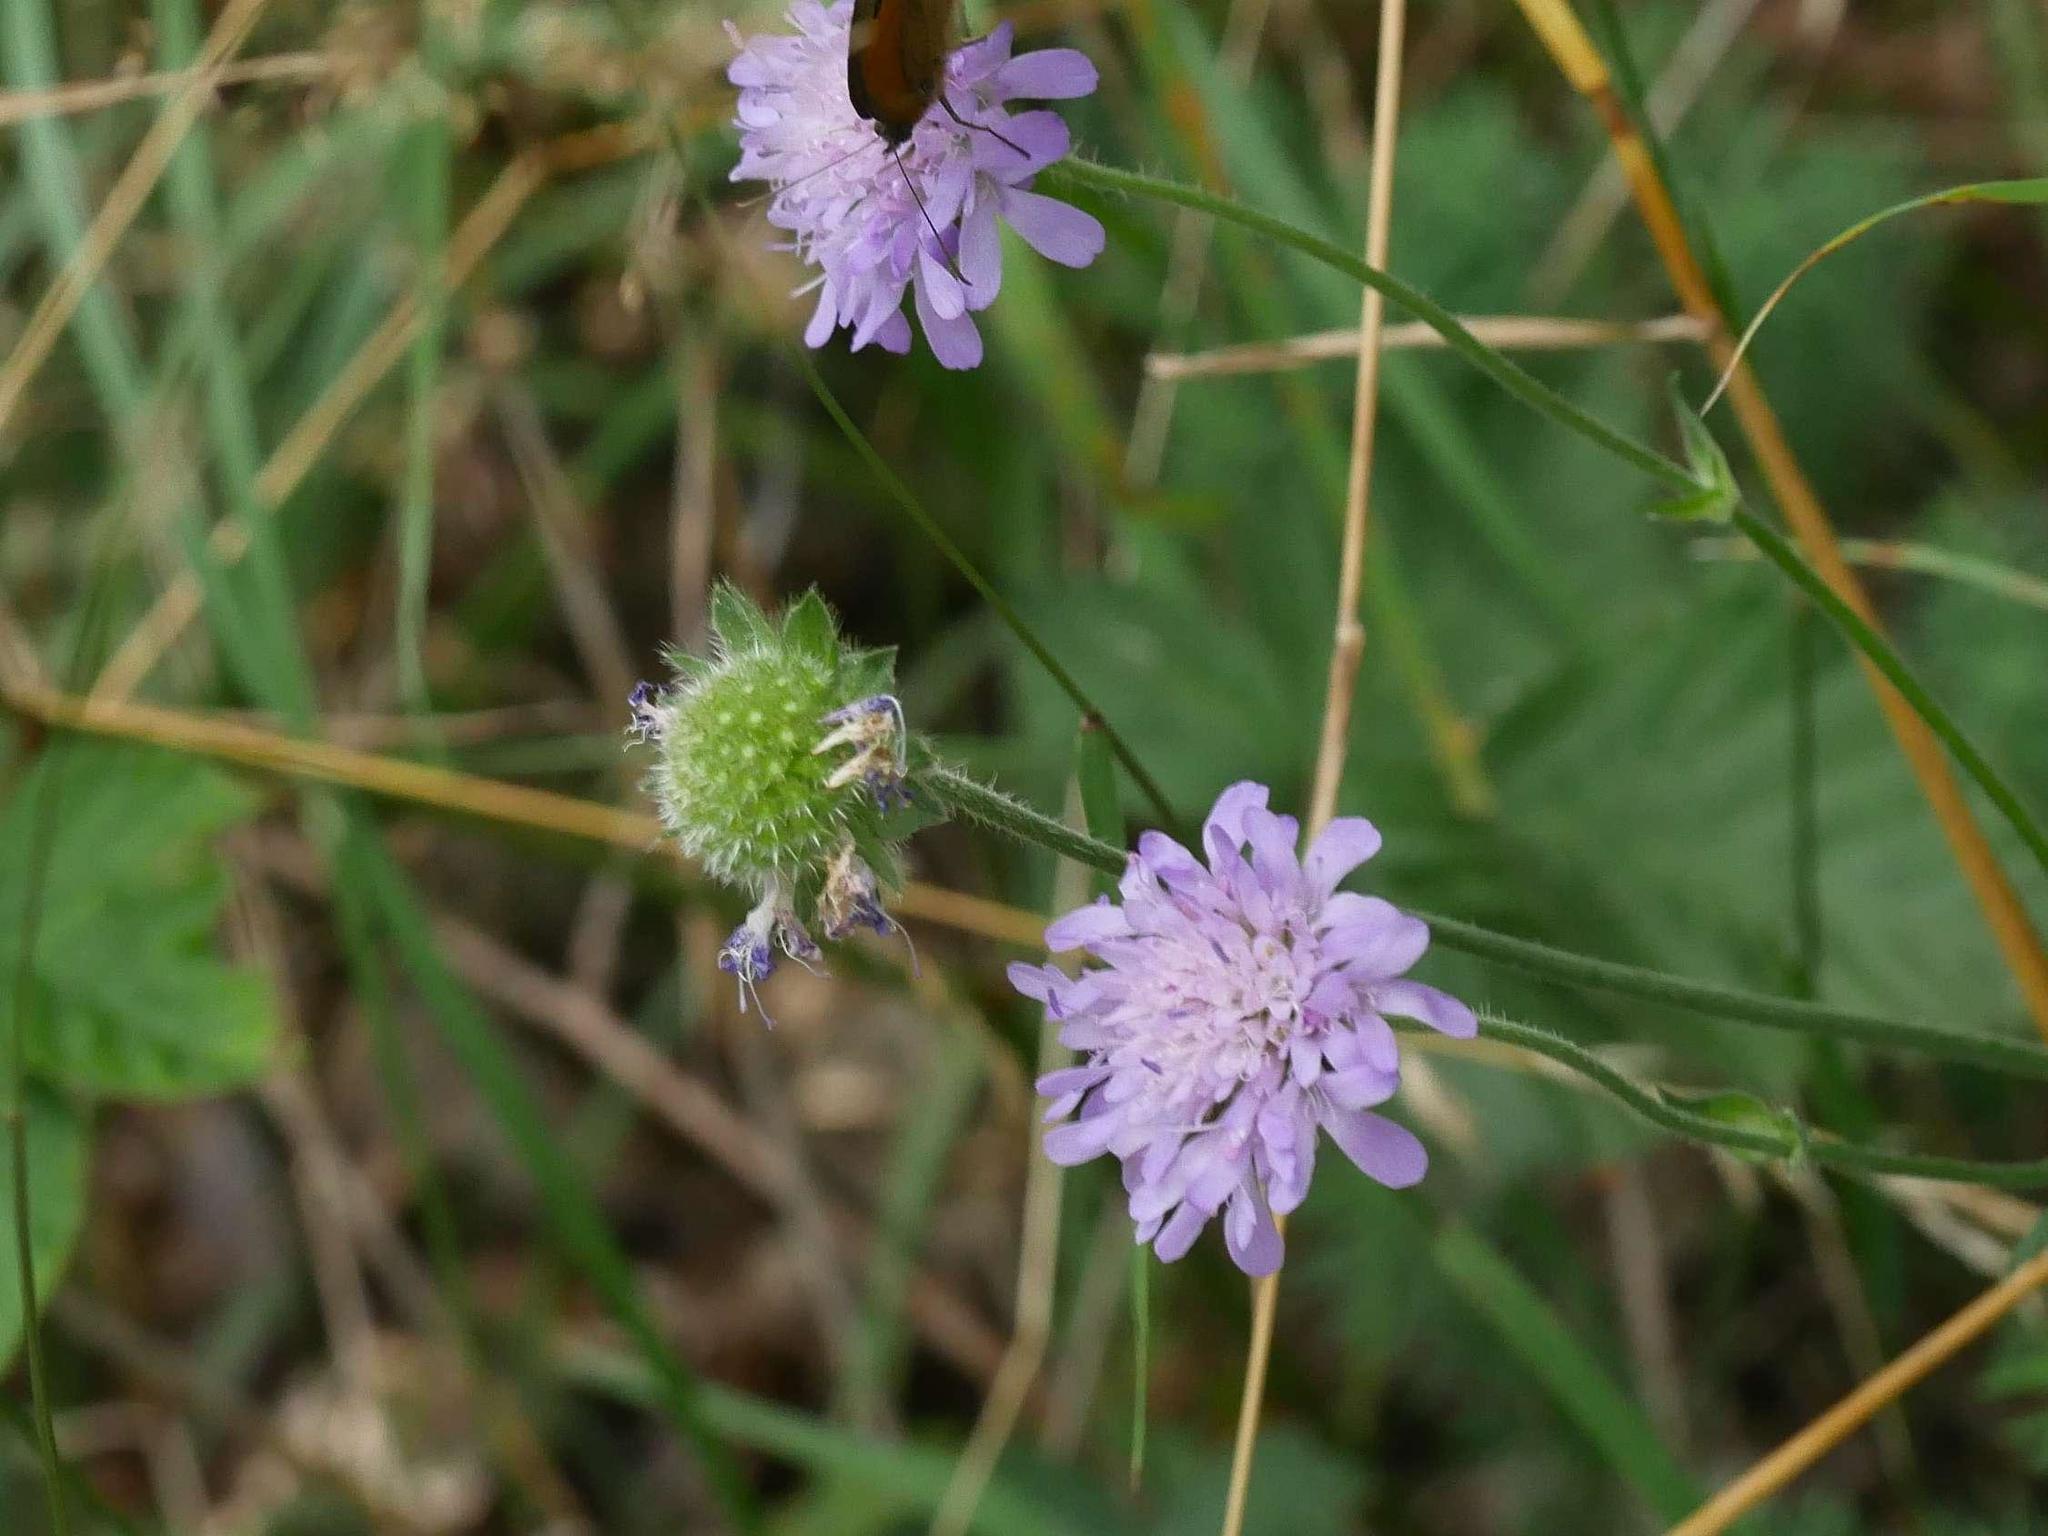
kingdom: Plantae
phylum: Tracheophyta
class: Magnoliopsida
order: Dipsacales
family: Caprifoliaceae
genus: Knautia
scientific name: Knautia arvensis
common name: Field scabiosa
